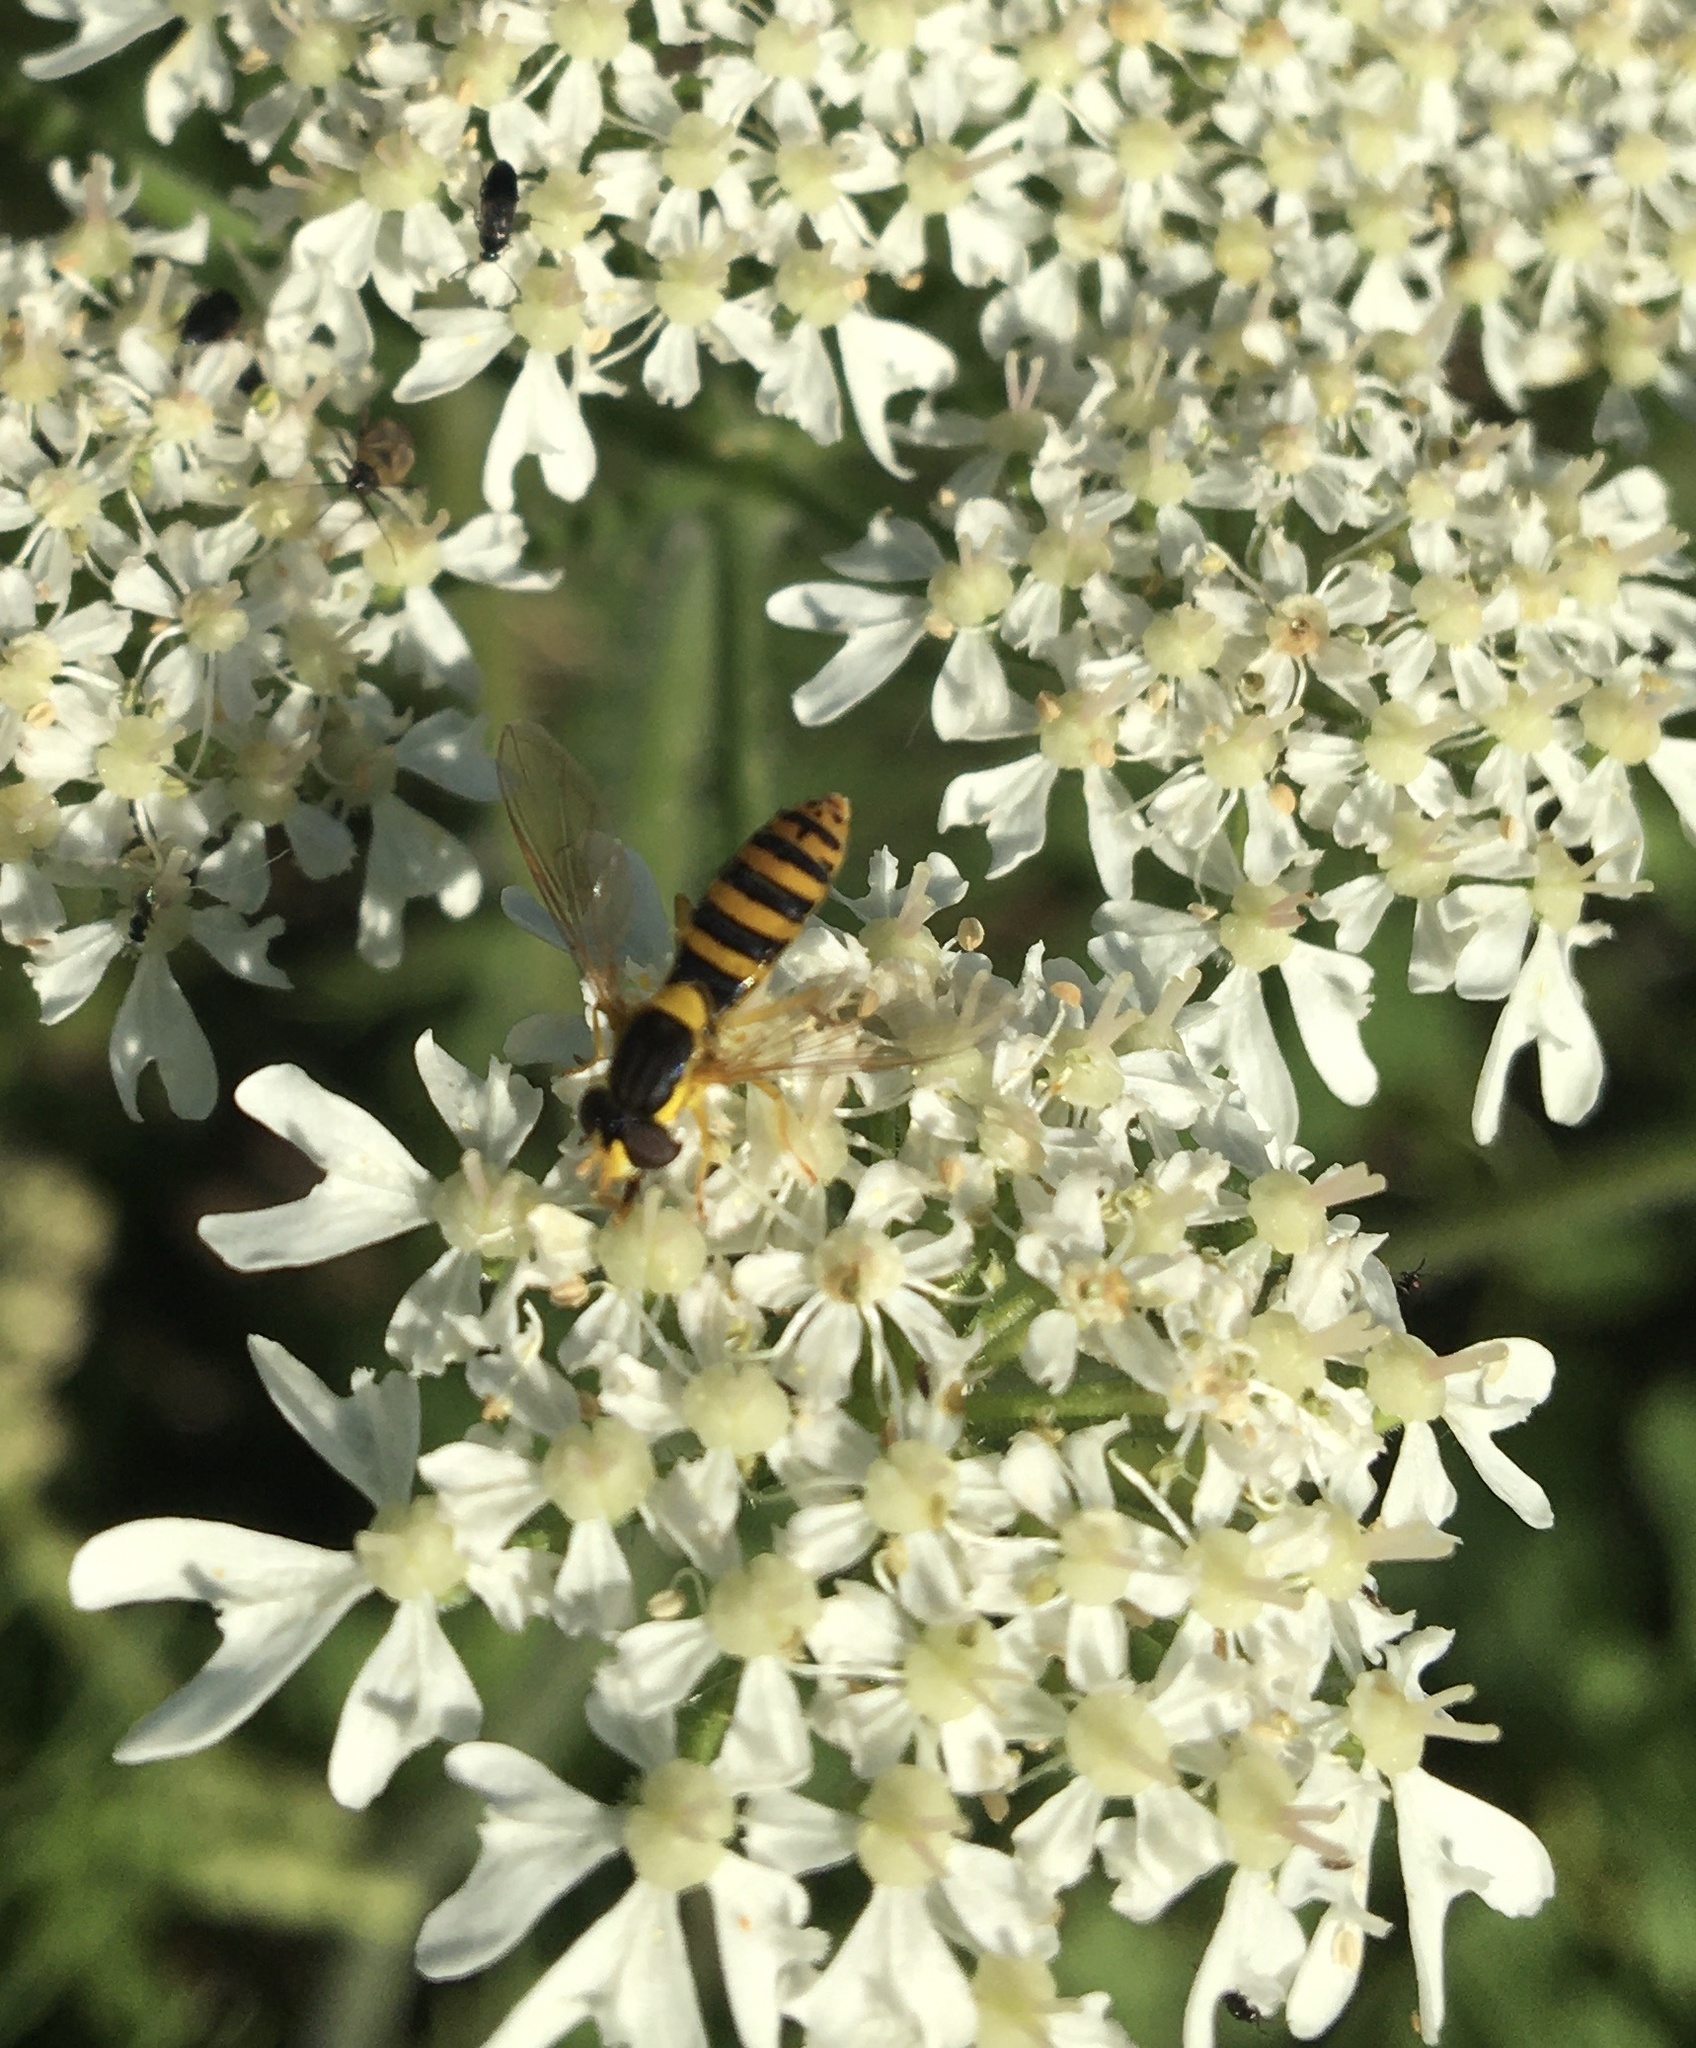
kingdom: Animalia
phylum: Arthropoda
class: Insecta
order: Diptera
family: Syrphidae
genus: Sphaerophoria
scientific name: Sphaerophoria
